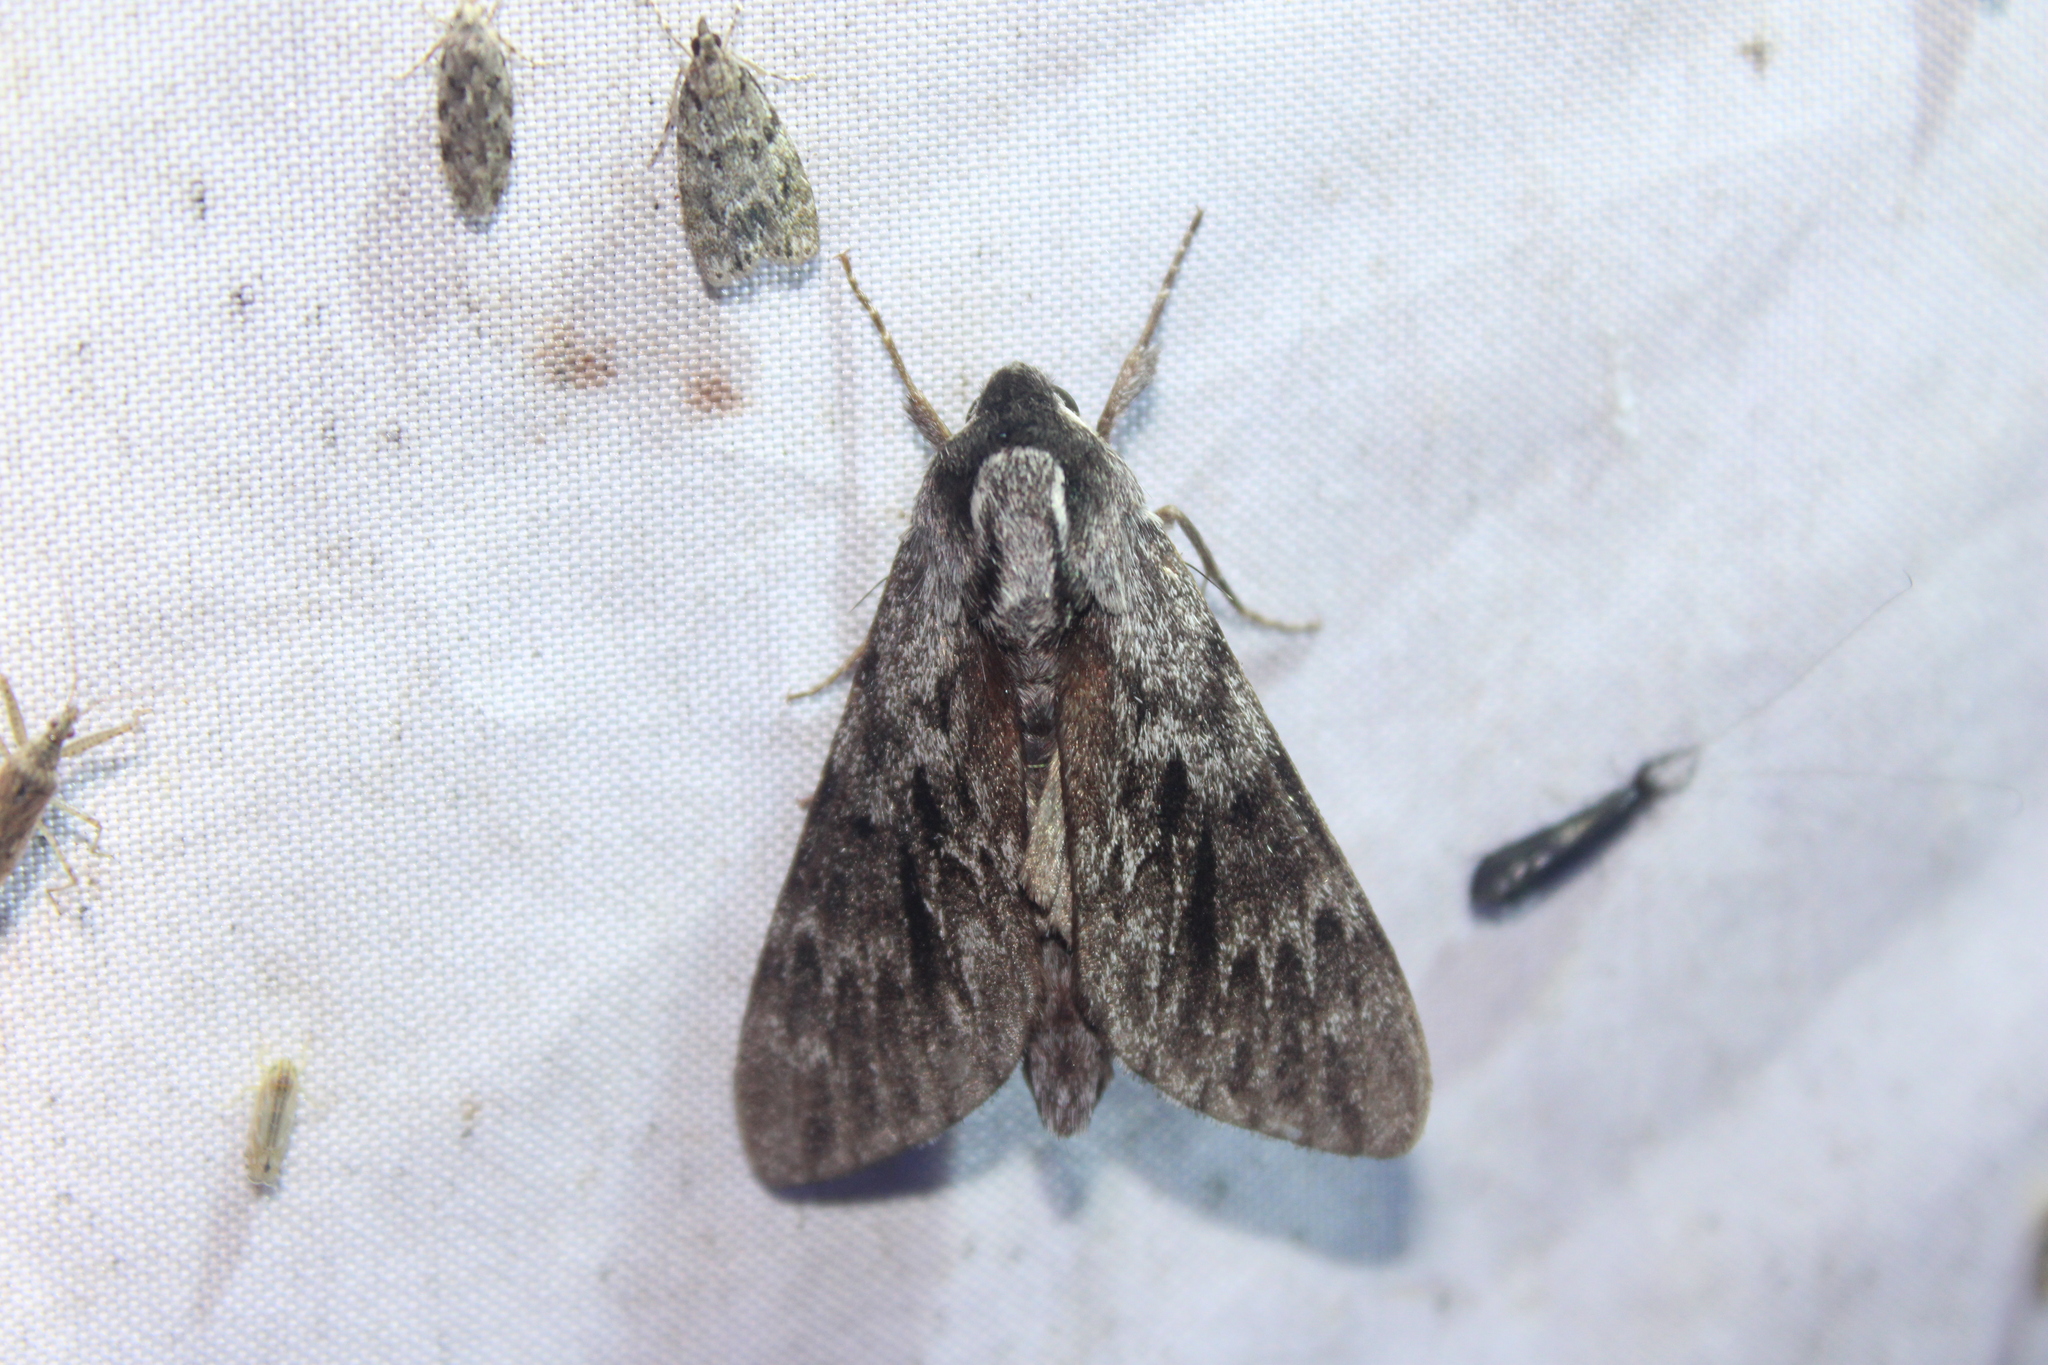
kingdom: Animalia
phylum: Arthropoda
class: Insecta
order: Lepidoptera
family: Sphingidae
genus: Lapara
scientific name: Lapara bombycoides
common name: Northern pine sphinx
